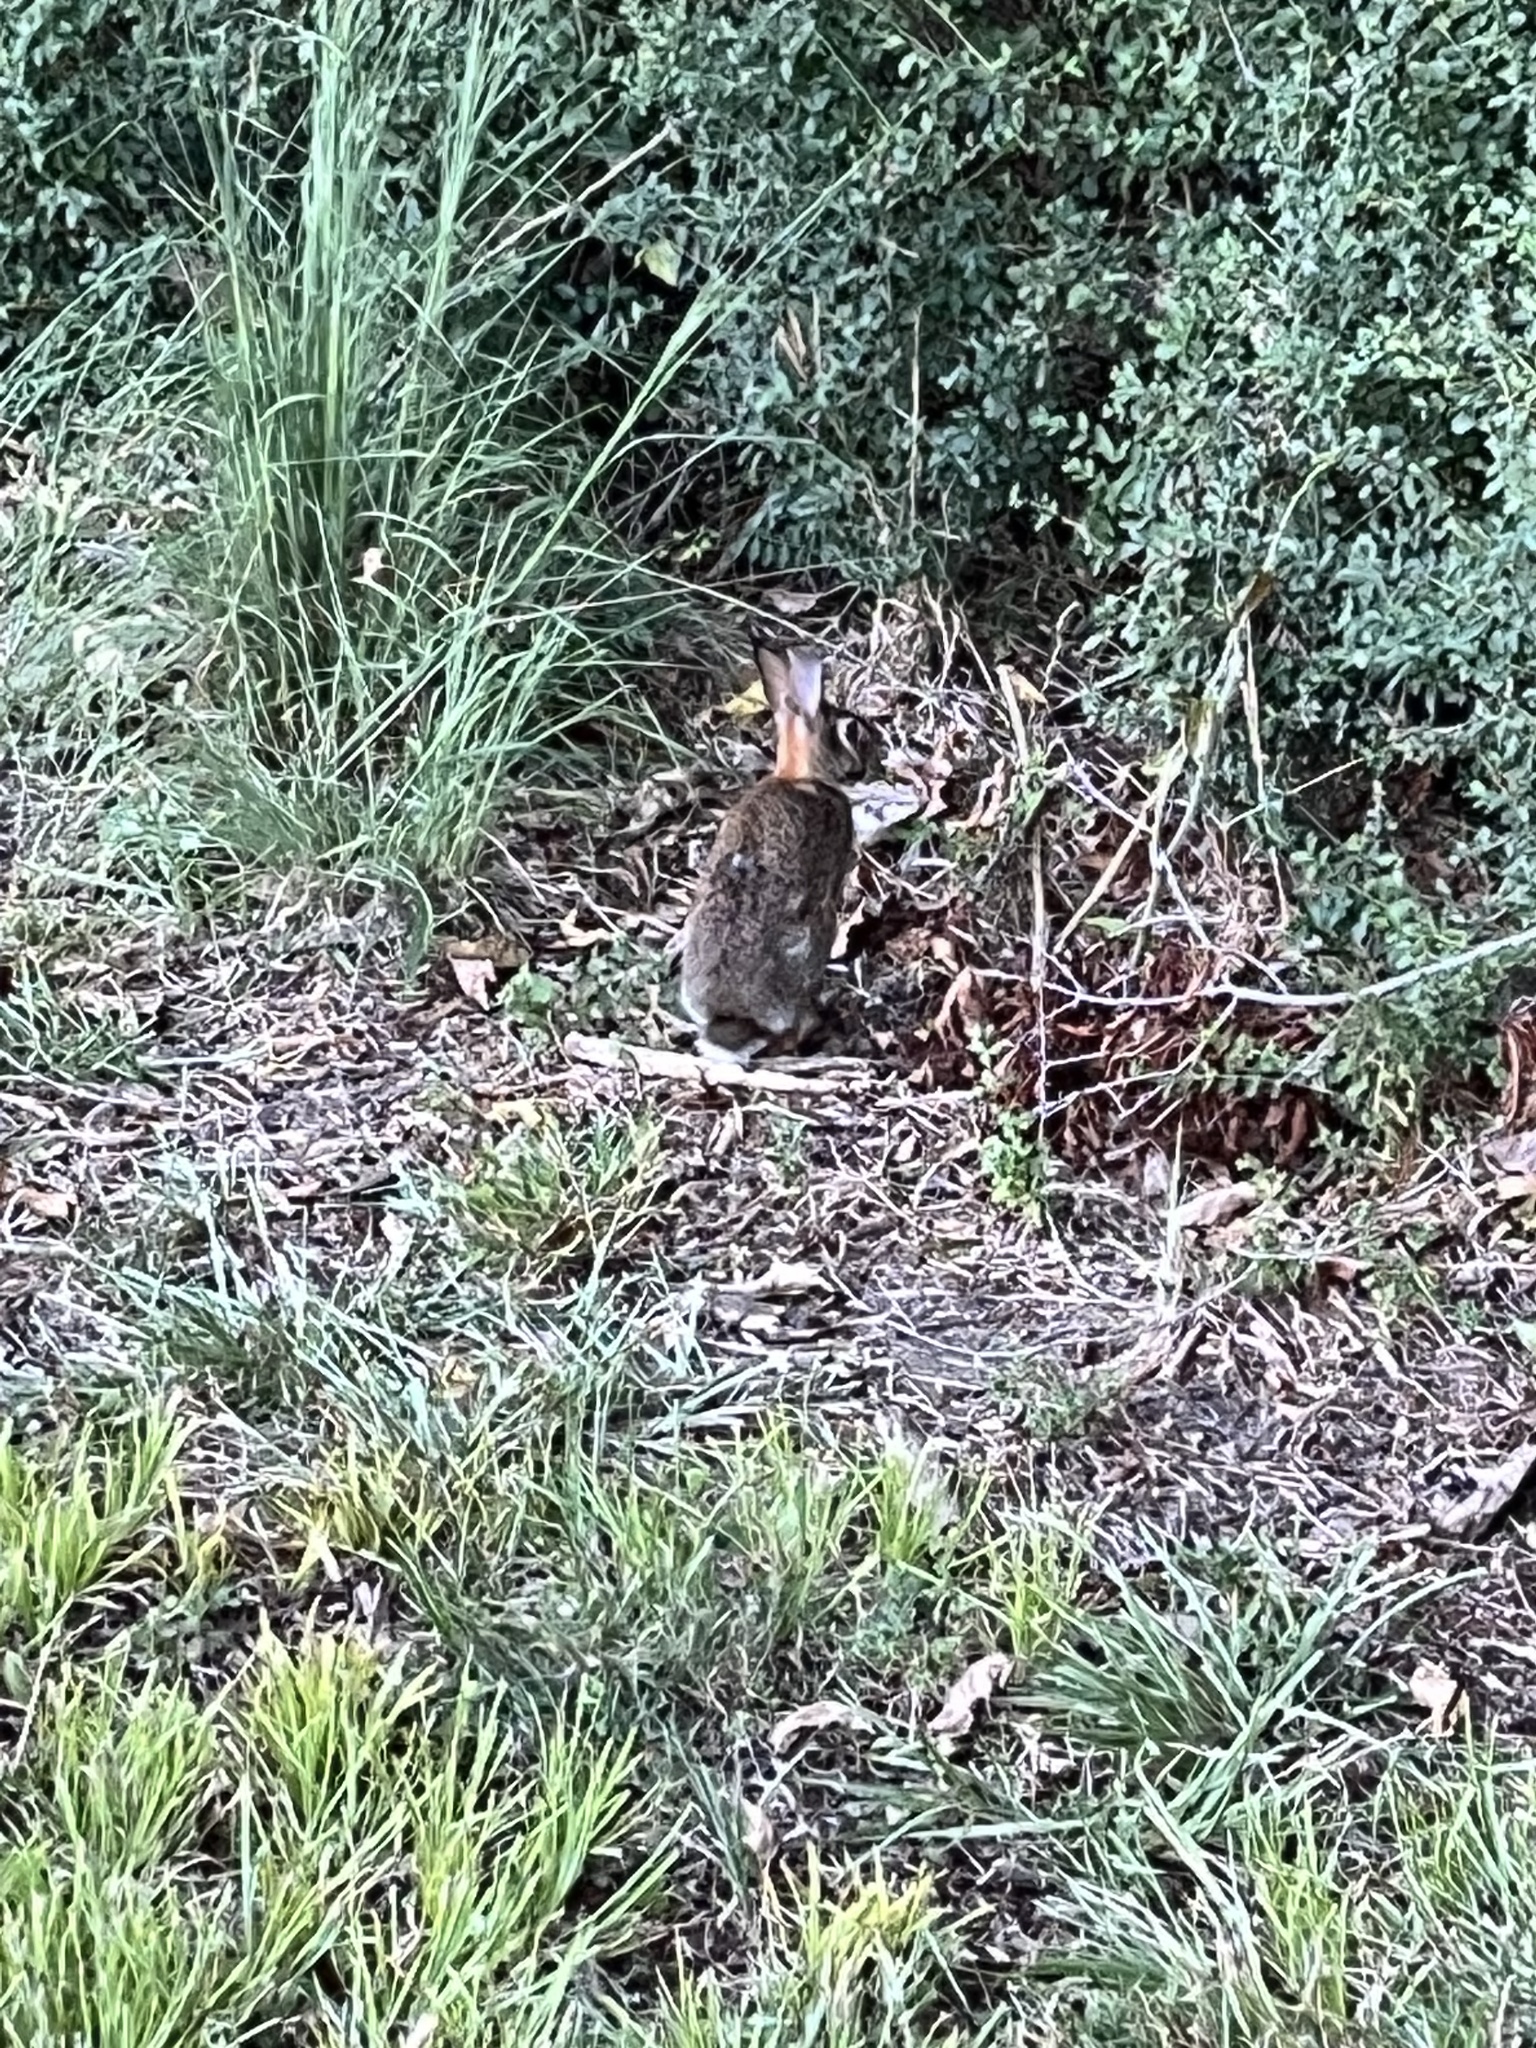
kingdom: Animalia
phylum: Chordata
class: Mammalia
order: Lagomorpha
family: Leporidae
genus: Sylvilagus
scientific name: Sylvilagus floridanus
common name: Eastern cottontail
